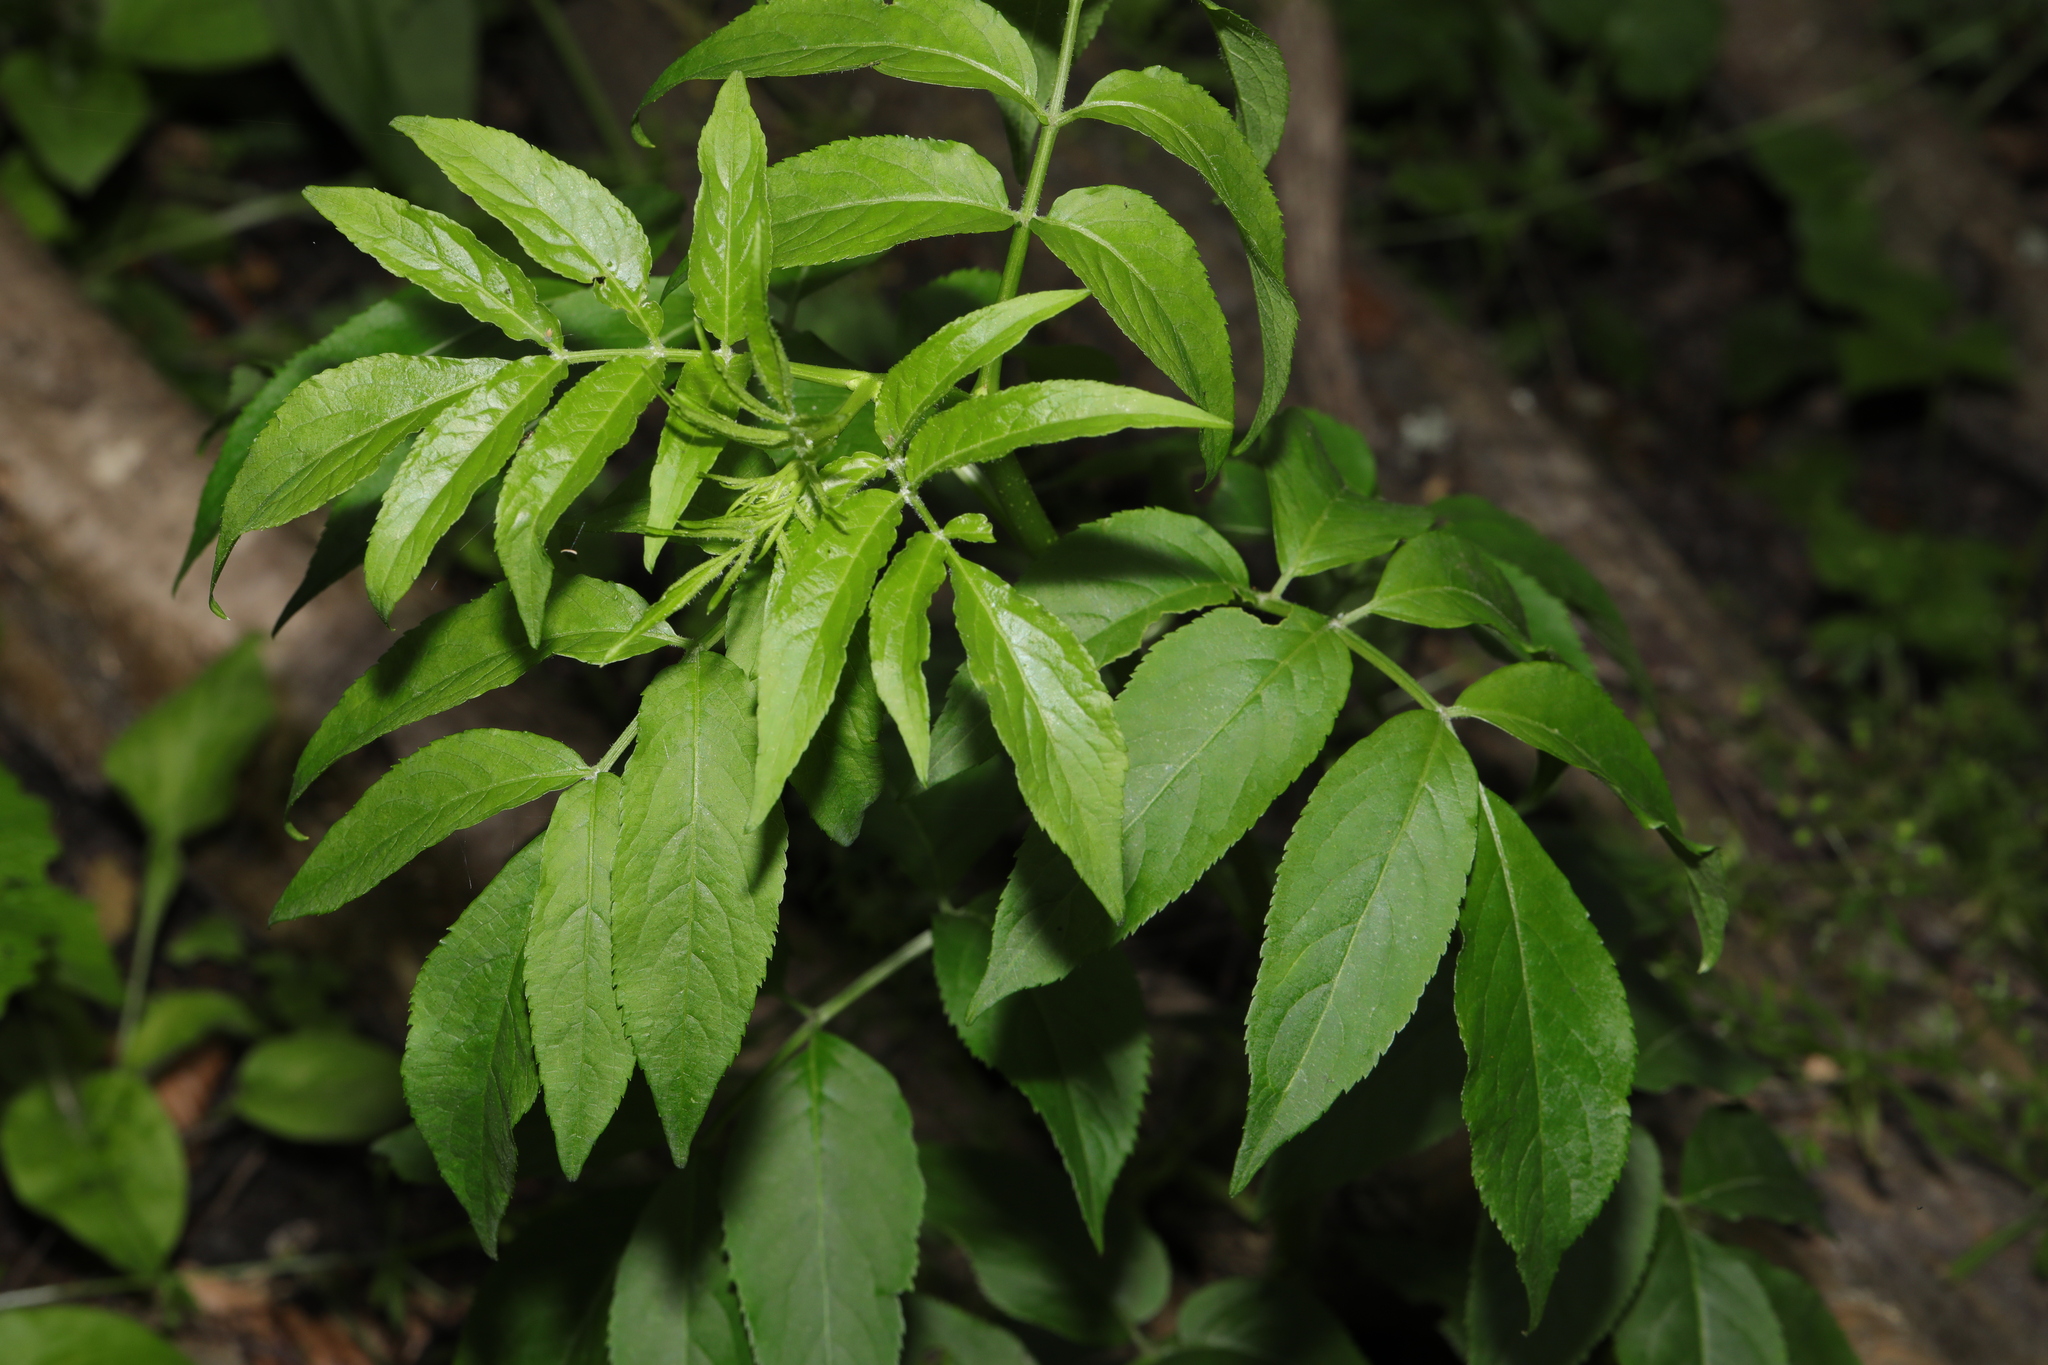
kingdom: Plantae
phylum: Tracheophyta
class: Magnoliopsida
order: Dipsacales
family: Viburnaceae
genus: Sambucus
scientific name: Sambucus nigra
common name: Elder
